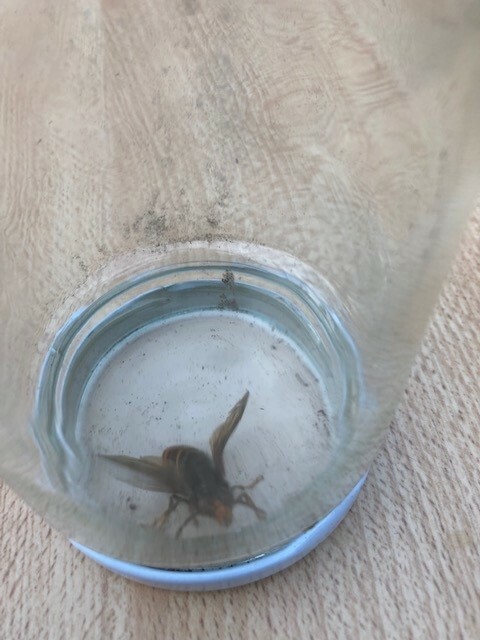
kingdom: Animalia
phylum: Arthropoda
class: Insecta
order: Hymenoptera
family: Vespidae
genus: Vespa
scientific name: Vespa velutina
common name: Asian hornet
